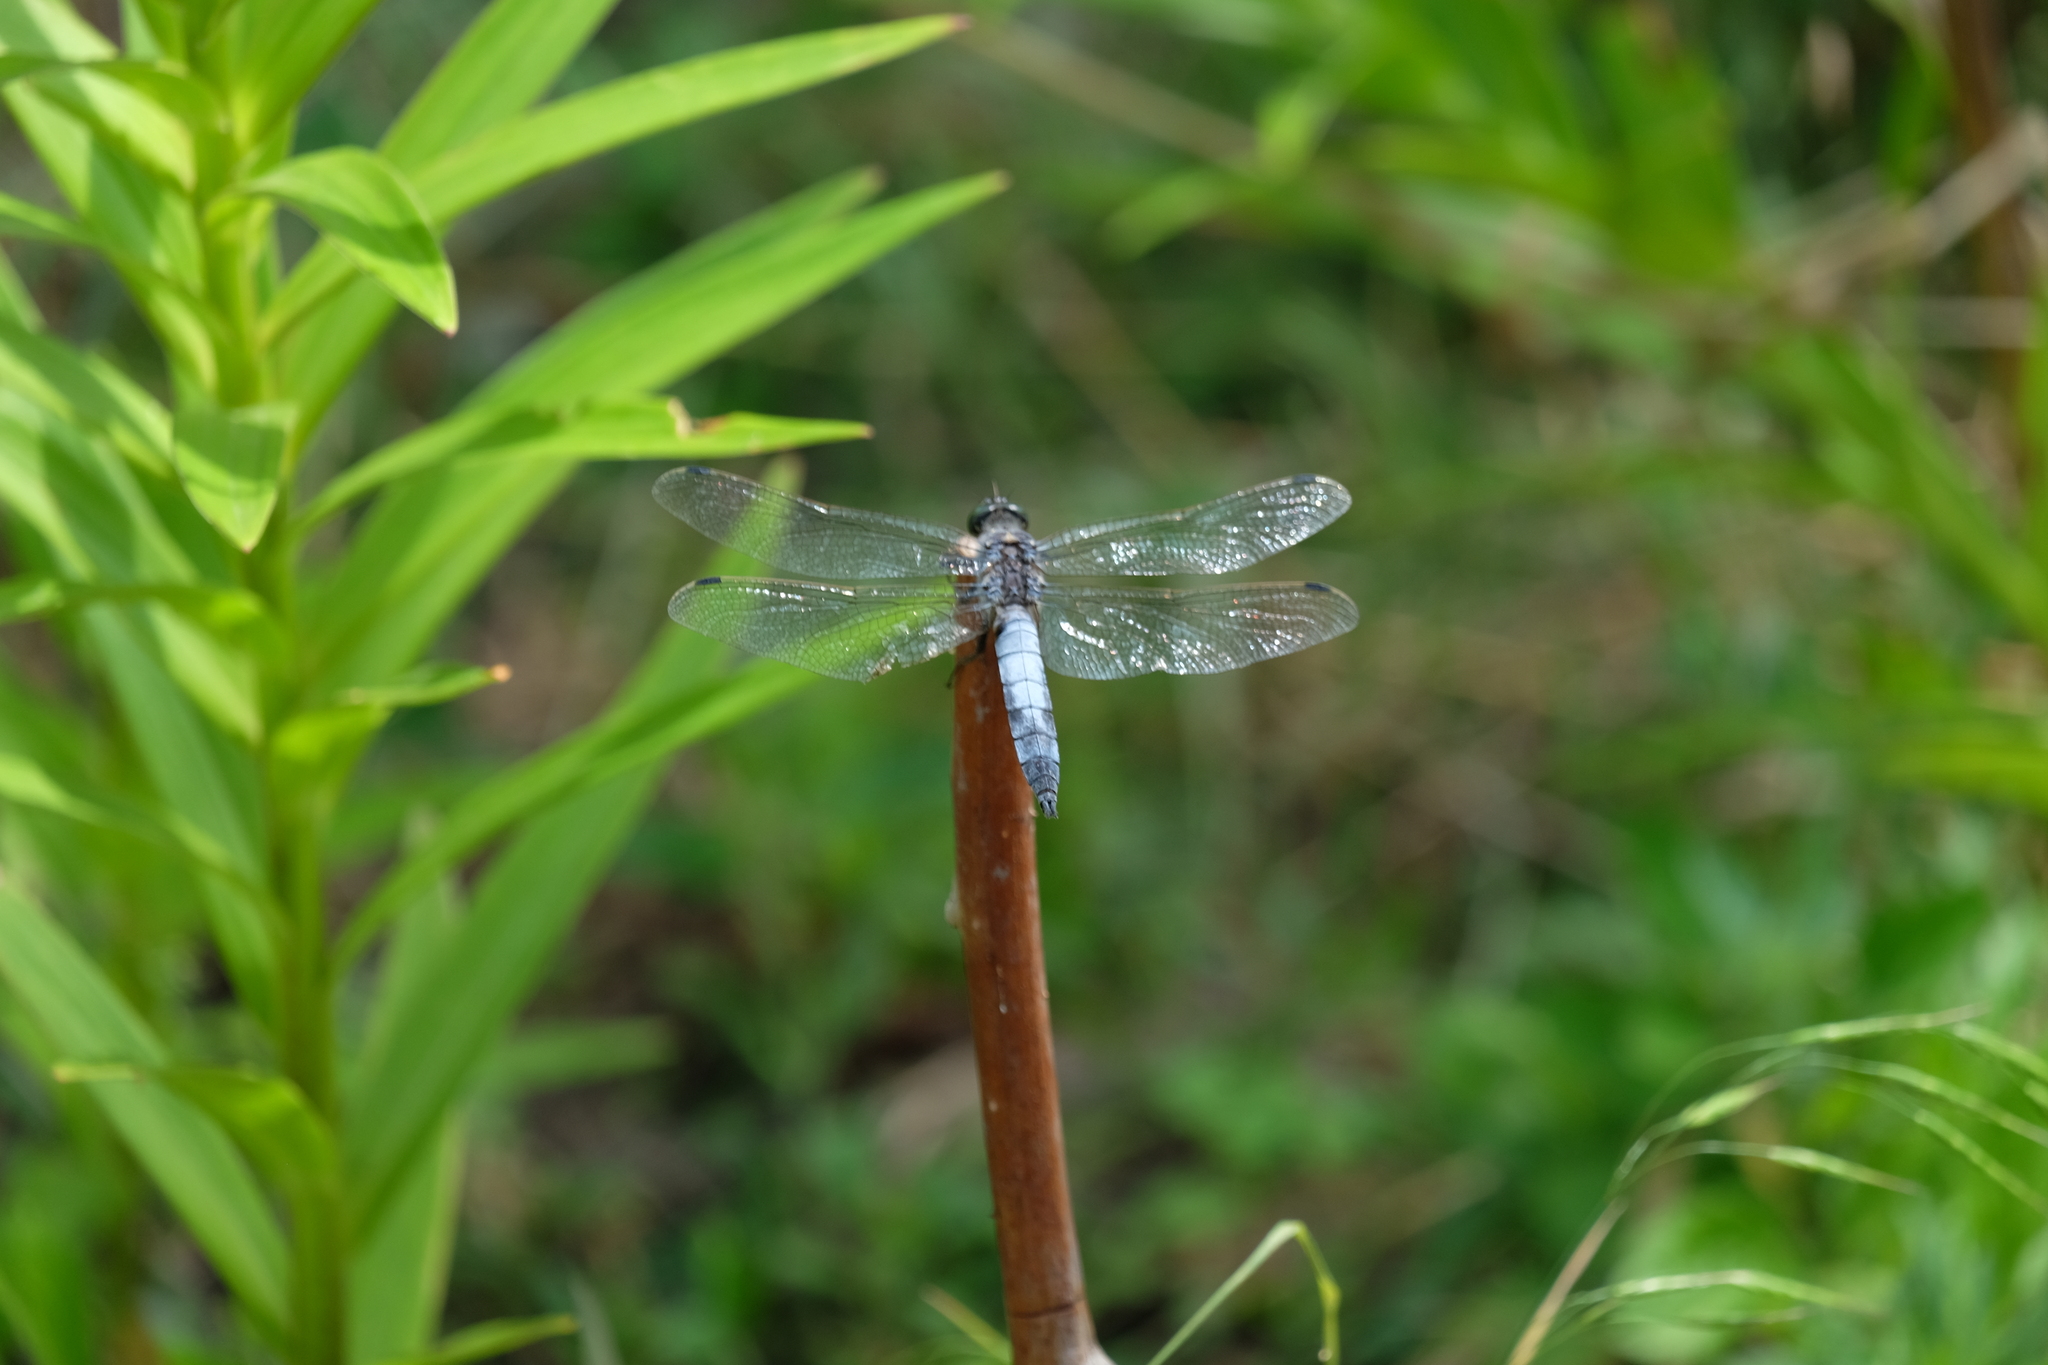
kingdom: Animalia
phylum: Arthropoda
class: Insecta
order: Odonata
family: Libellulidae
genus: Orthetrum
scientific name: Orthetrum cancellatum
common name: Black-tailed skimmer
